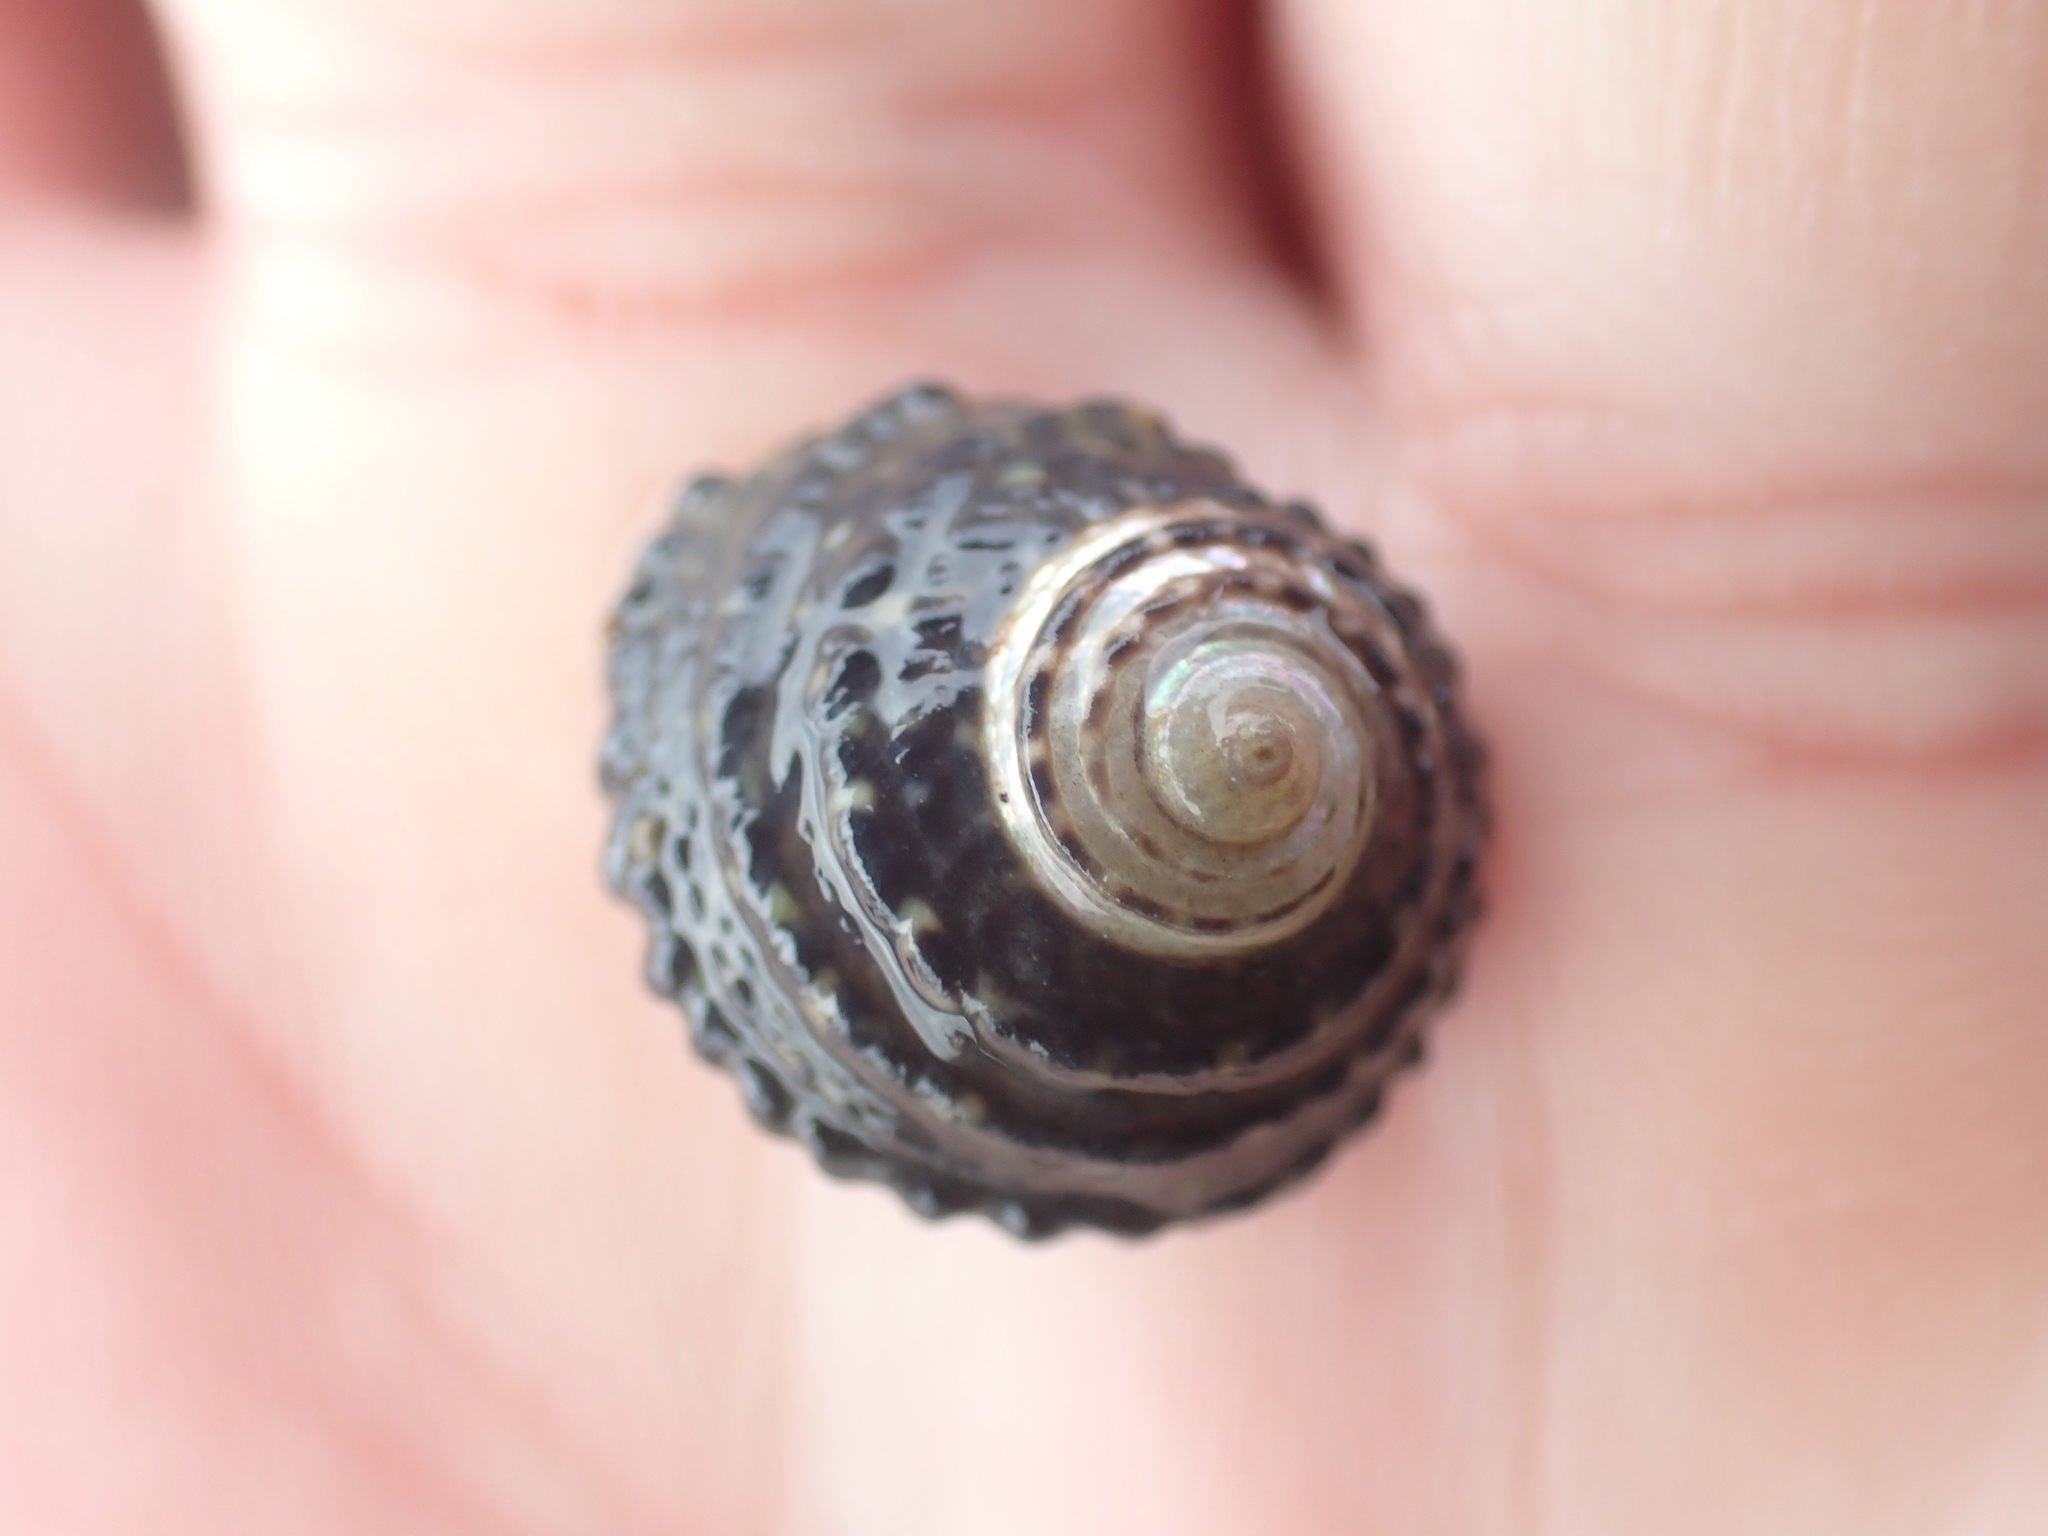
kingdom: Animalia
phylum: Mollusca
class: Gastropoda
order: Trochida
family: Trochidae
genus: Diloma
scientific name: Diloma bicanaliculatum
